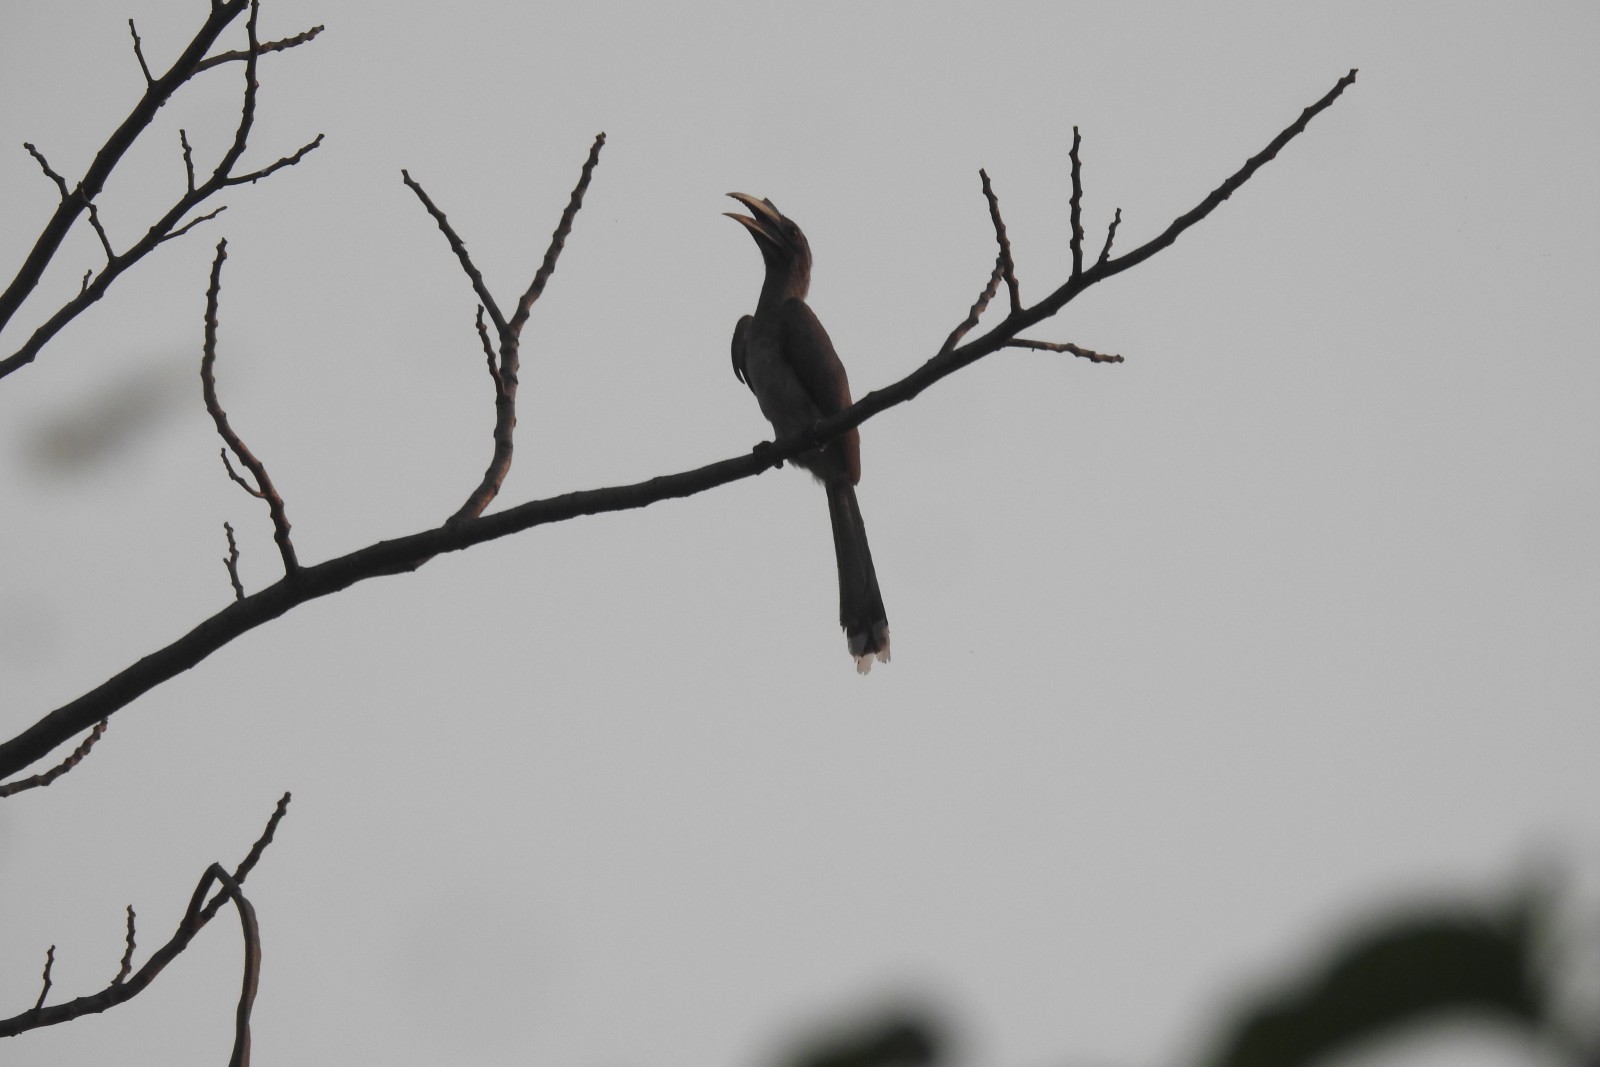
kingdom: Animalia
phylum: Chordata
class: Aves
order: Bucerotiformes
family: Bucerotidae
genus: Ocyceros
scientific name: Ocyceros birostris
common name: Indian grey hornbill
